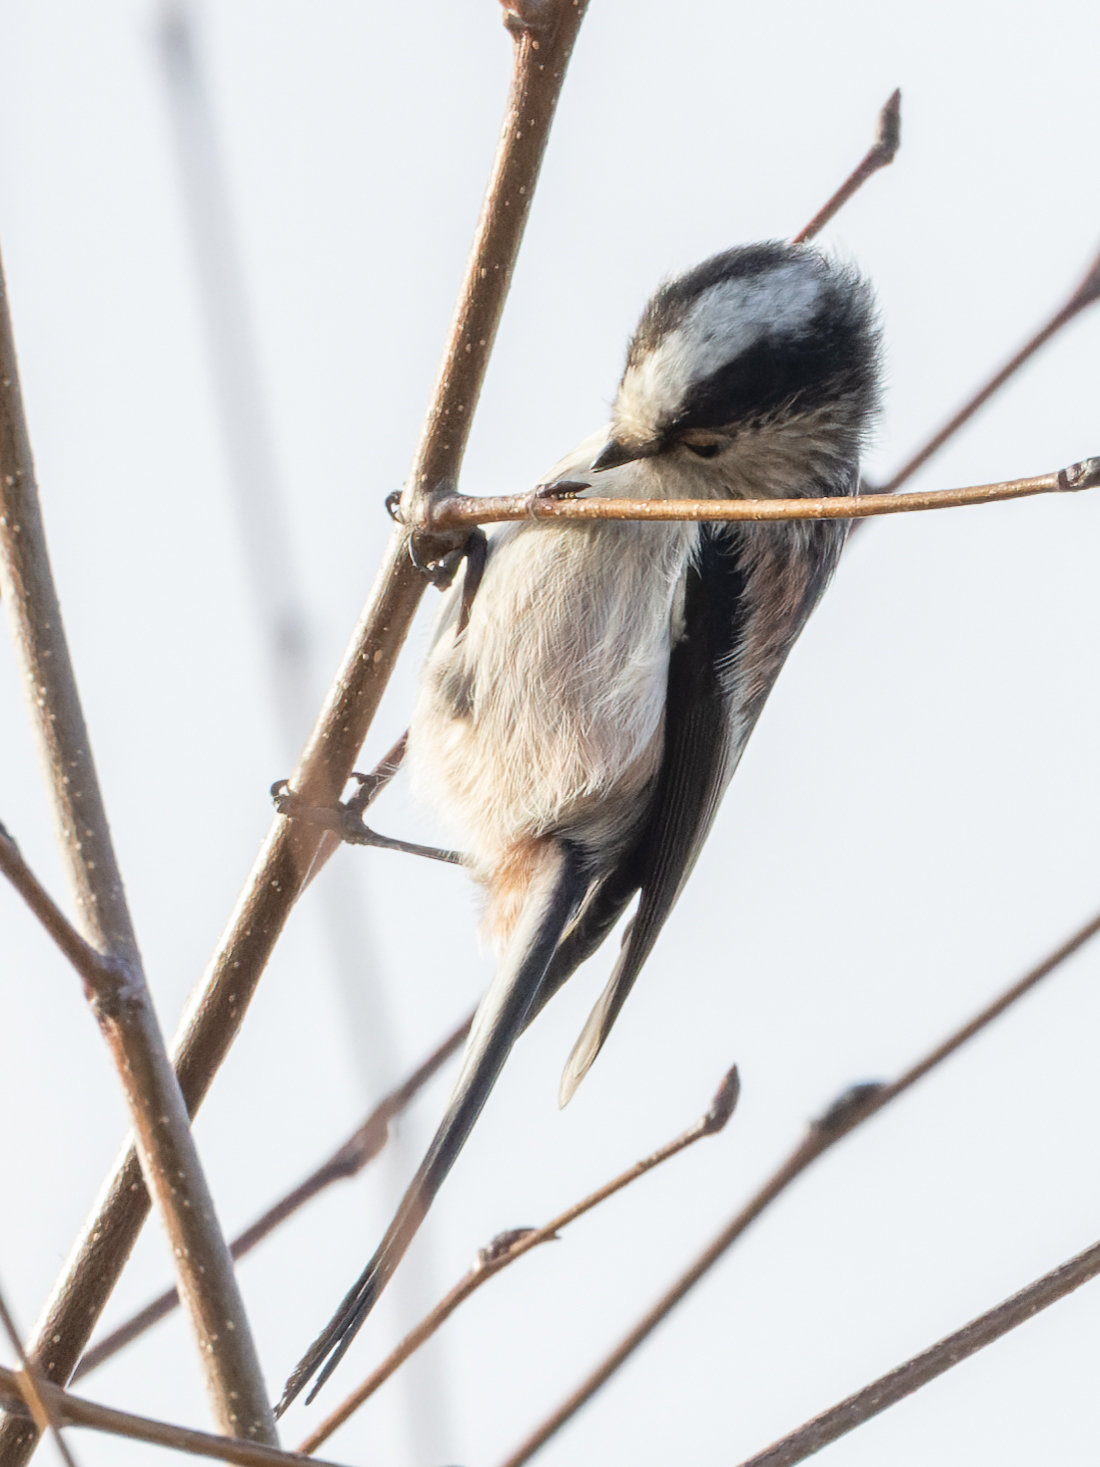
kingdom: Animalia
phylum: Chordata
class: Aves
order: Passeriformes
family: Aegithalidae
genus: Aegithalos
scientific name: Aegithalos caudatus
